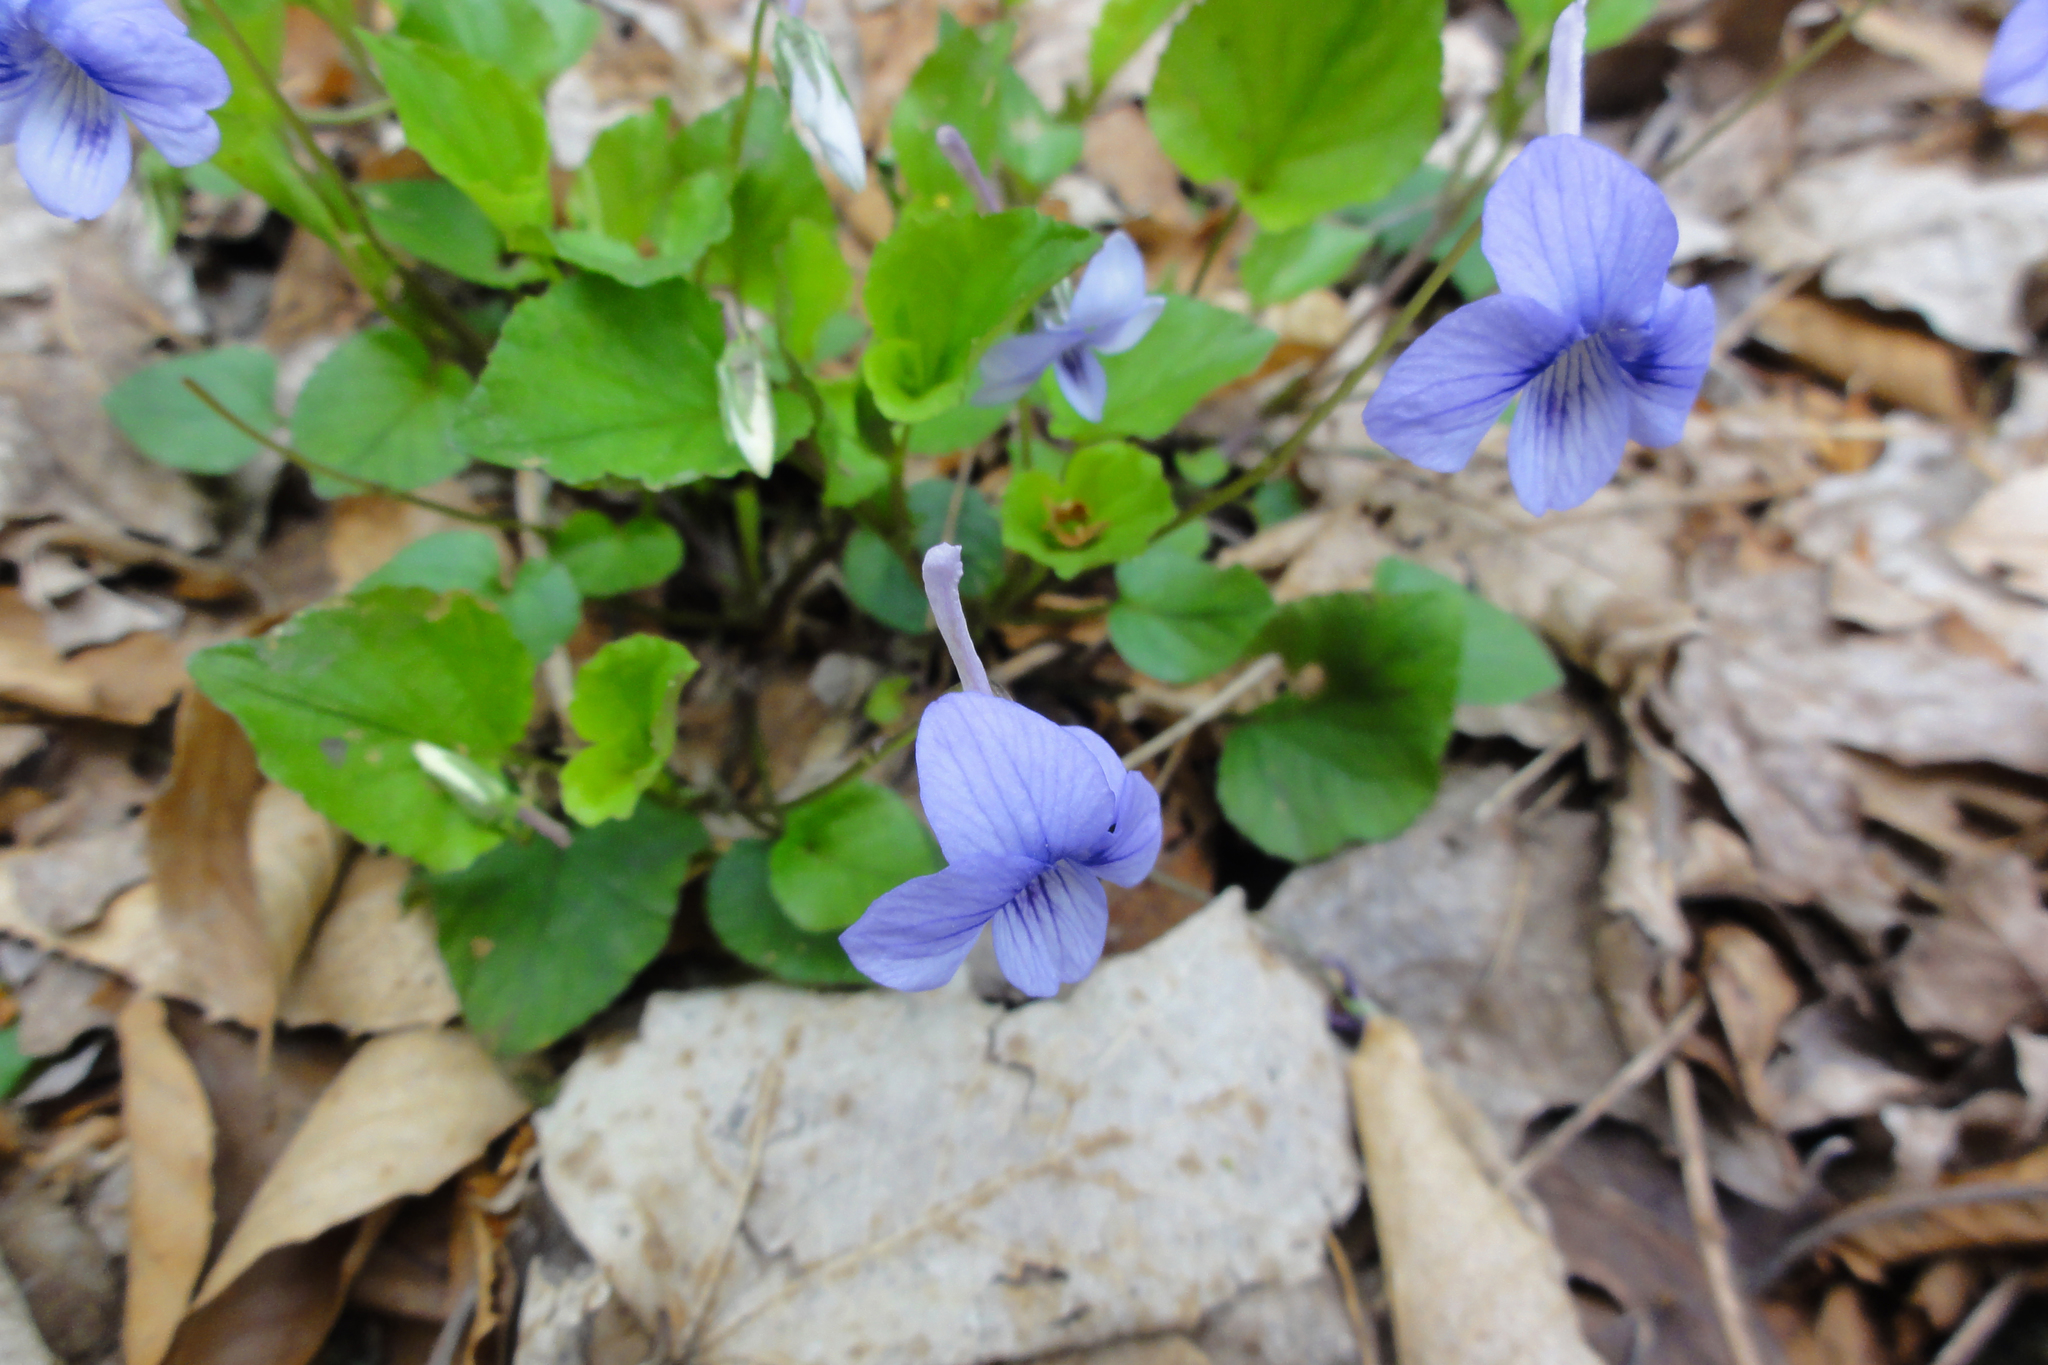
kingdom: Plantae
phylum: Tracheophyta
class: Magnoliopsida
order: Malpighiales
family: Violaceae
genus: Viola
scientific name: Viola rostrata
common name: Long-spur violet
